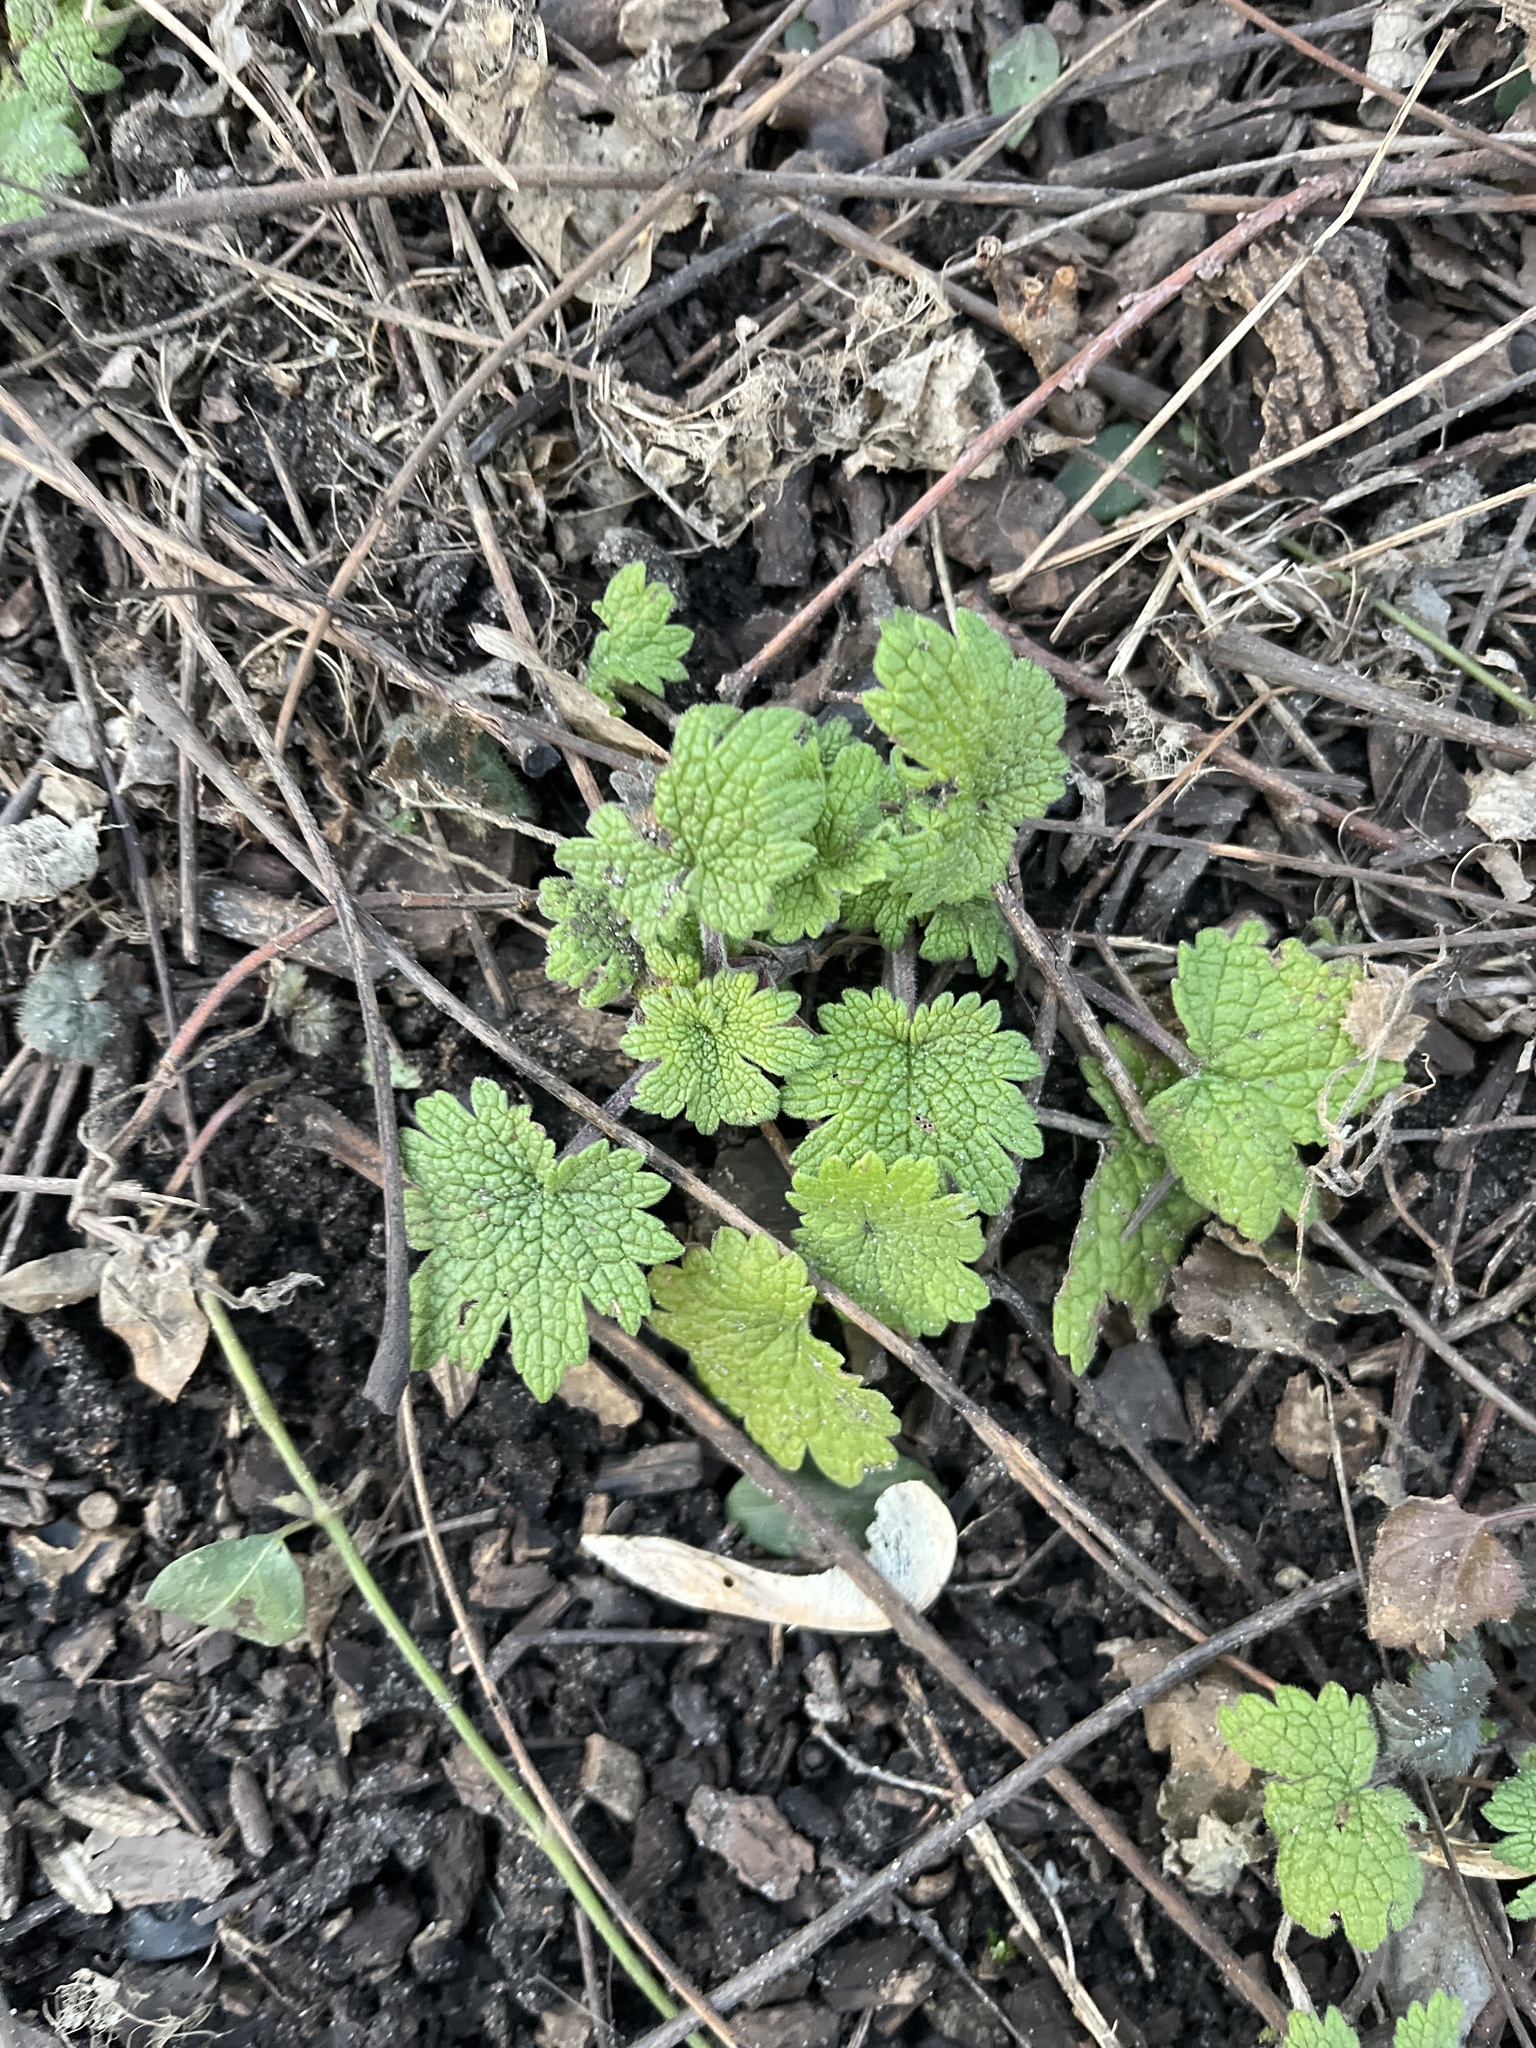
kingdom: Plantae
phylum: Tracheophyta
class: Magnoliopsida
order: Lamiales
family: Lamiaceae
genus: Leonurus
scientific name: Leonurus cardiaca
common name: Motherwort
